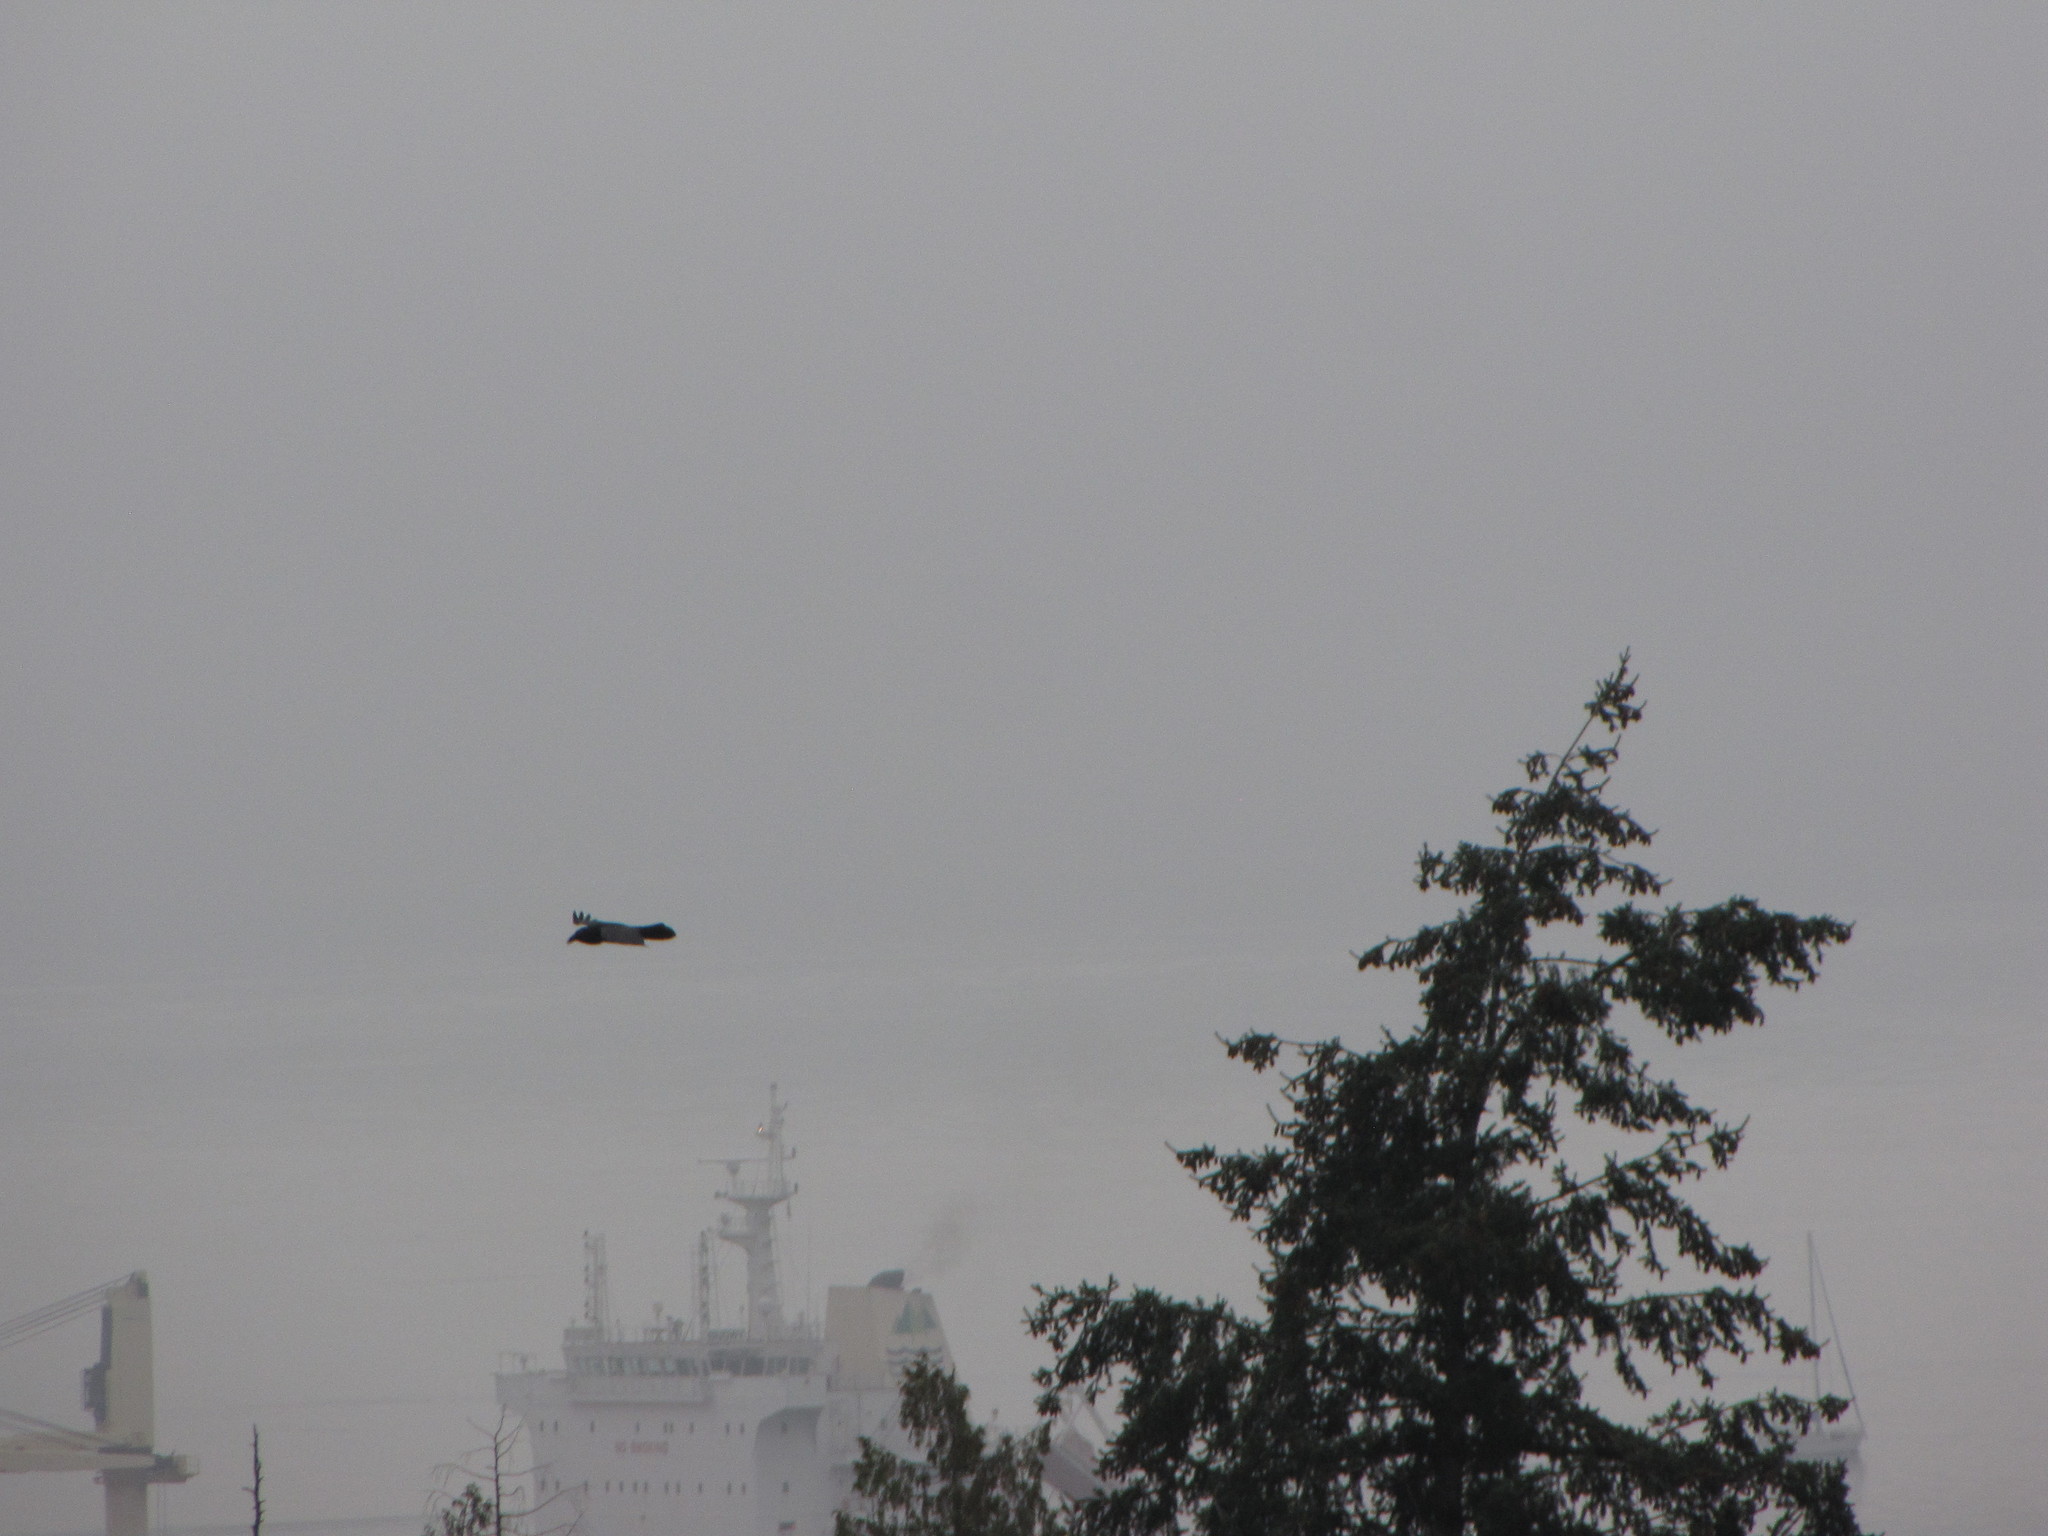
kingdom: Animalia
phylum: Chordata
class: Aves
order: Passeriformes
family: Corvidae
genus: Corvus
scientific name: Corvus corax
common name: Common raven
